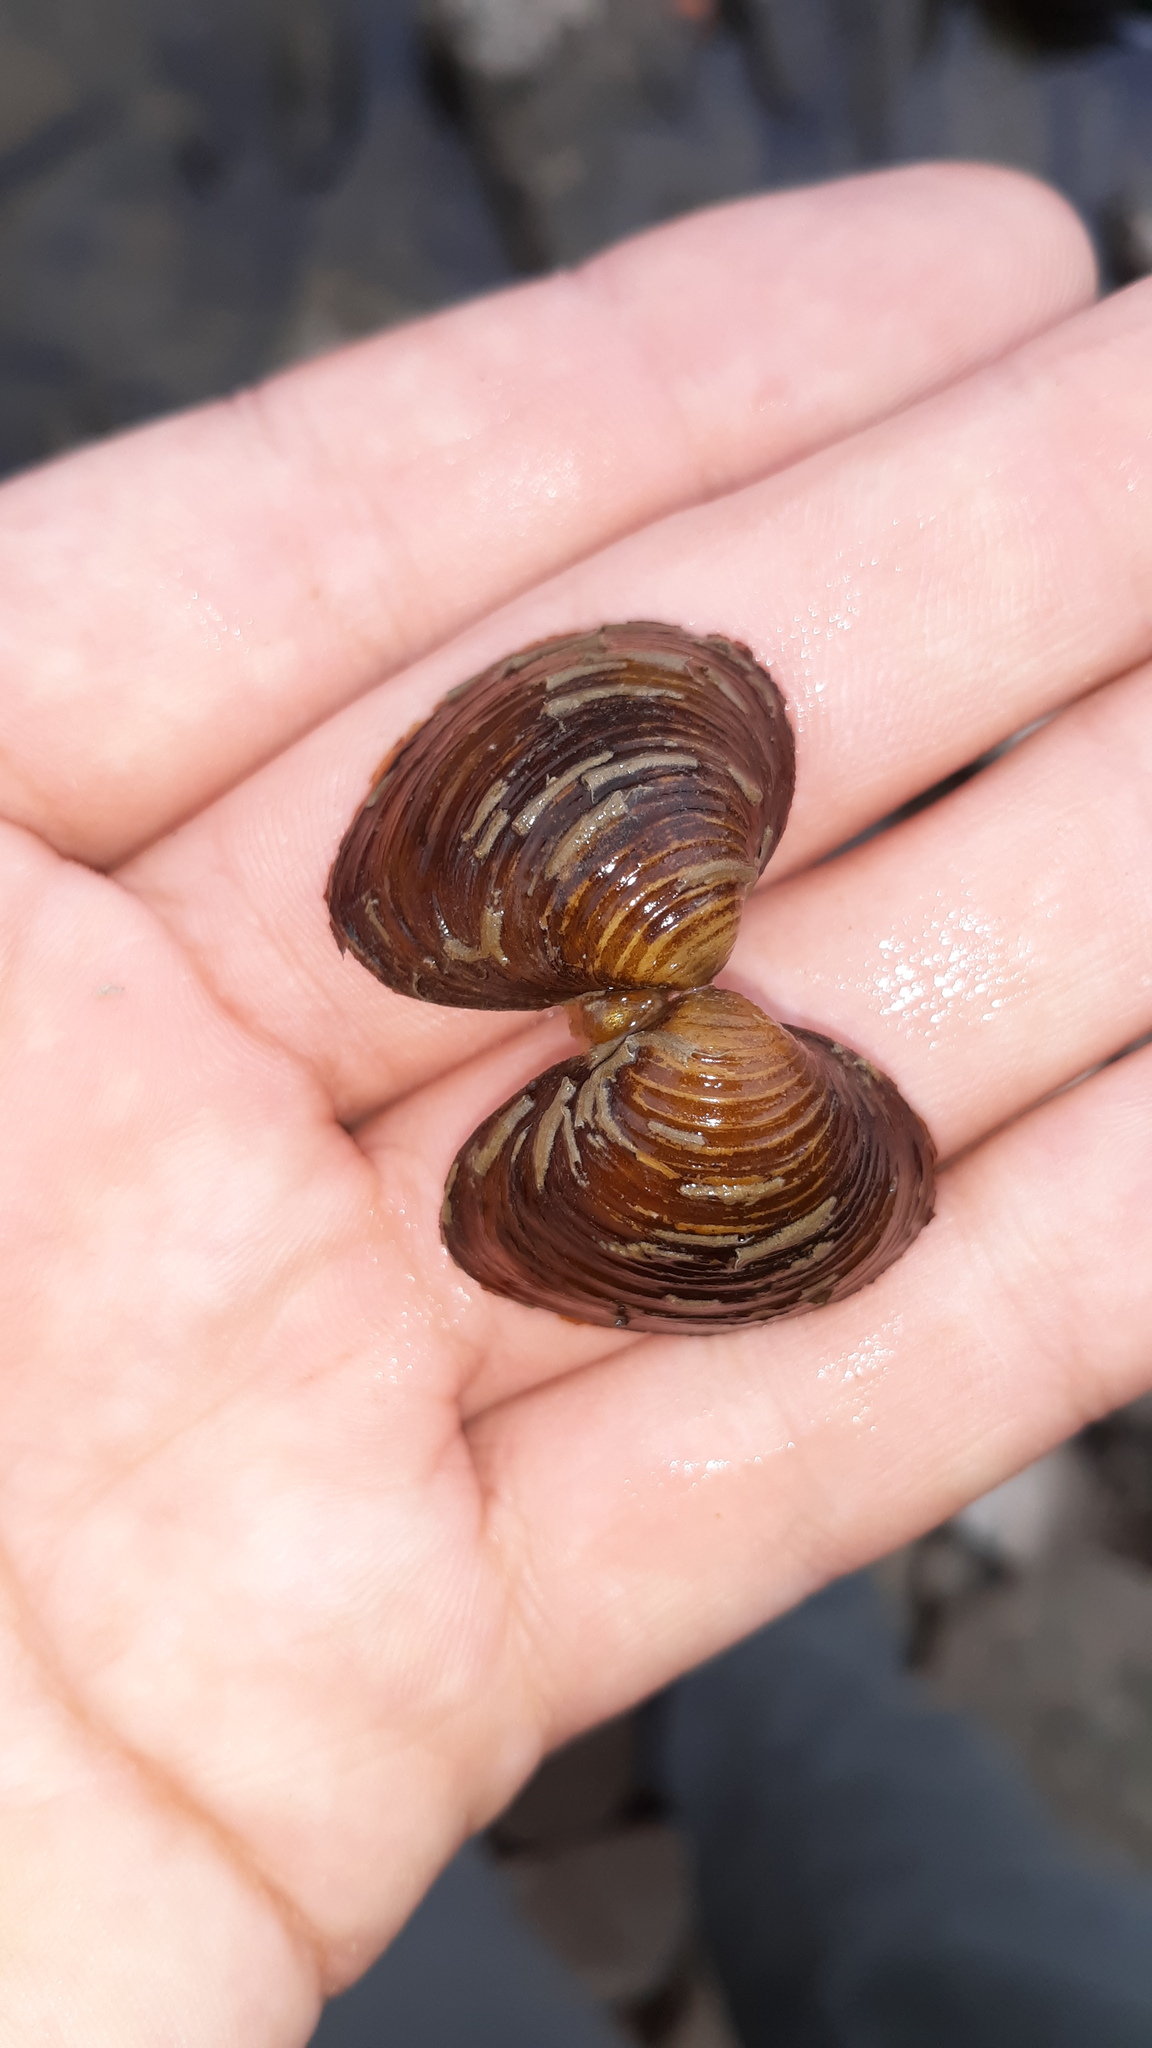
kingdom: Animalia
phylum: Mollusca
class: Bivalvia
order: Venerida
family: Cyrenidae
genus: Corbicula
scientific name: Corbicula fluminea
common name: Asian clam
